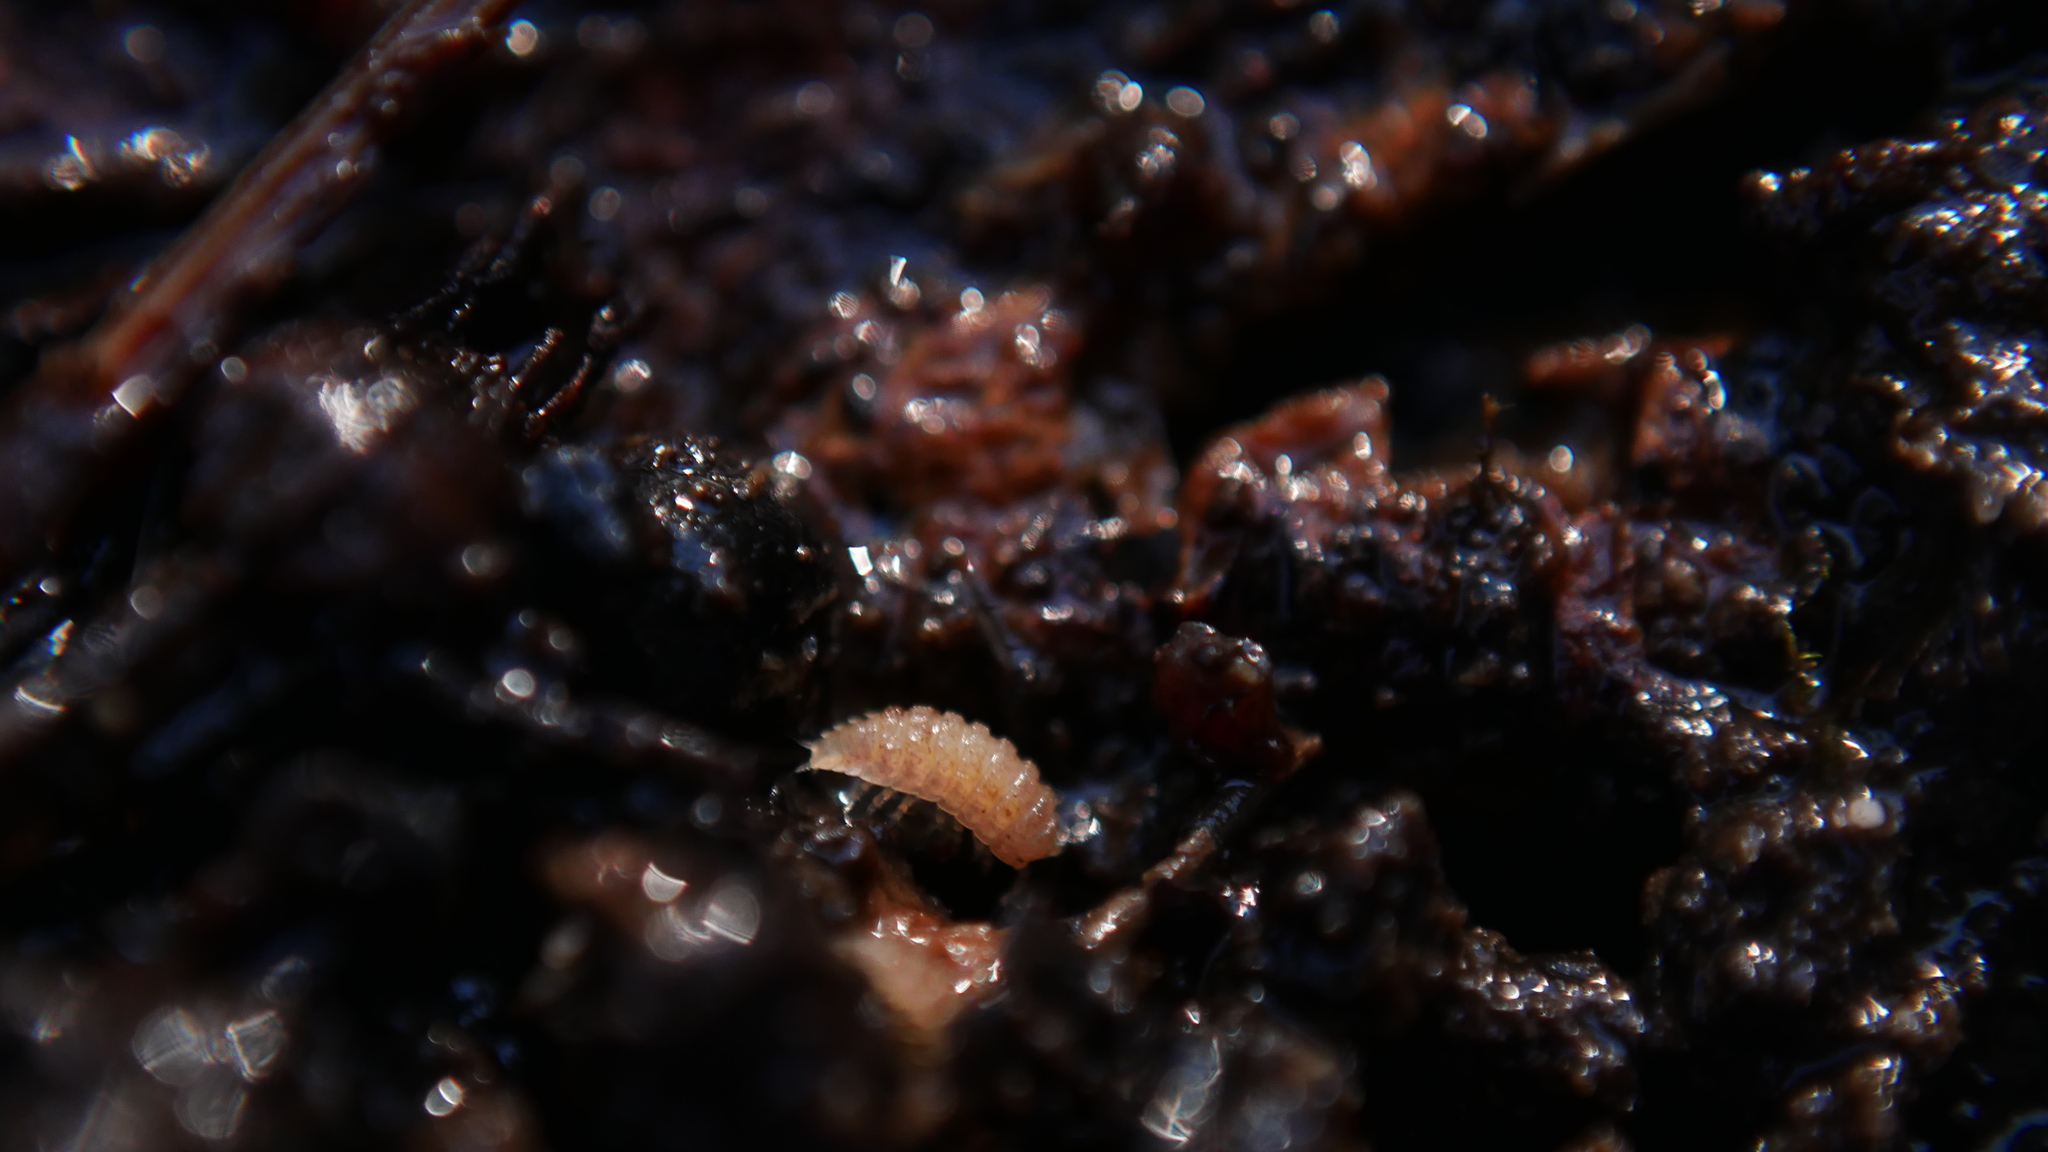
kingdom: Animalia
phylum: Arthropoda
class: Malacostraca
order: Isopoda
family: Trichoniscidae
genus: Haplophthalmus
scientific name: Haplophthalmus danicus
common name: Pillbug
